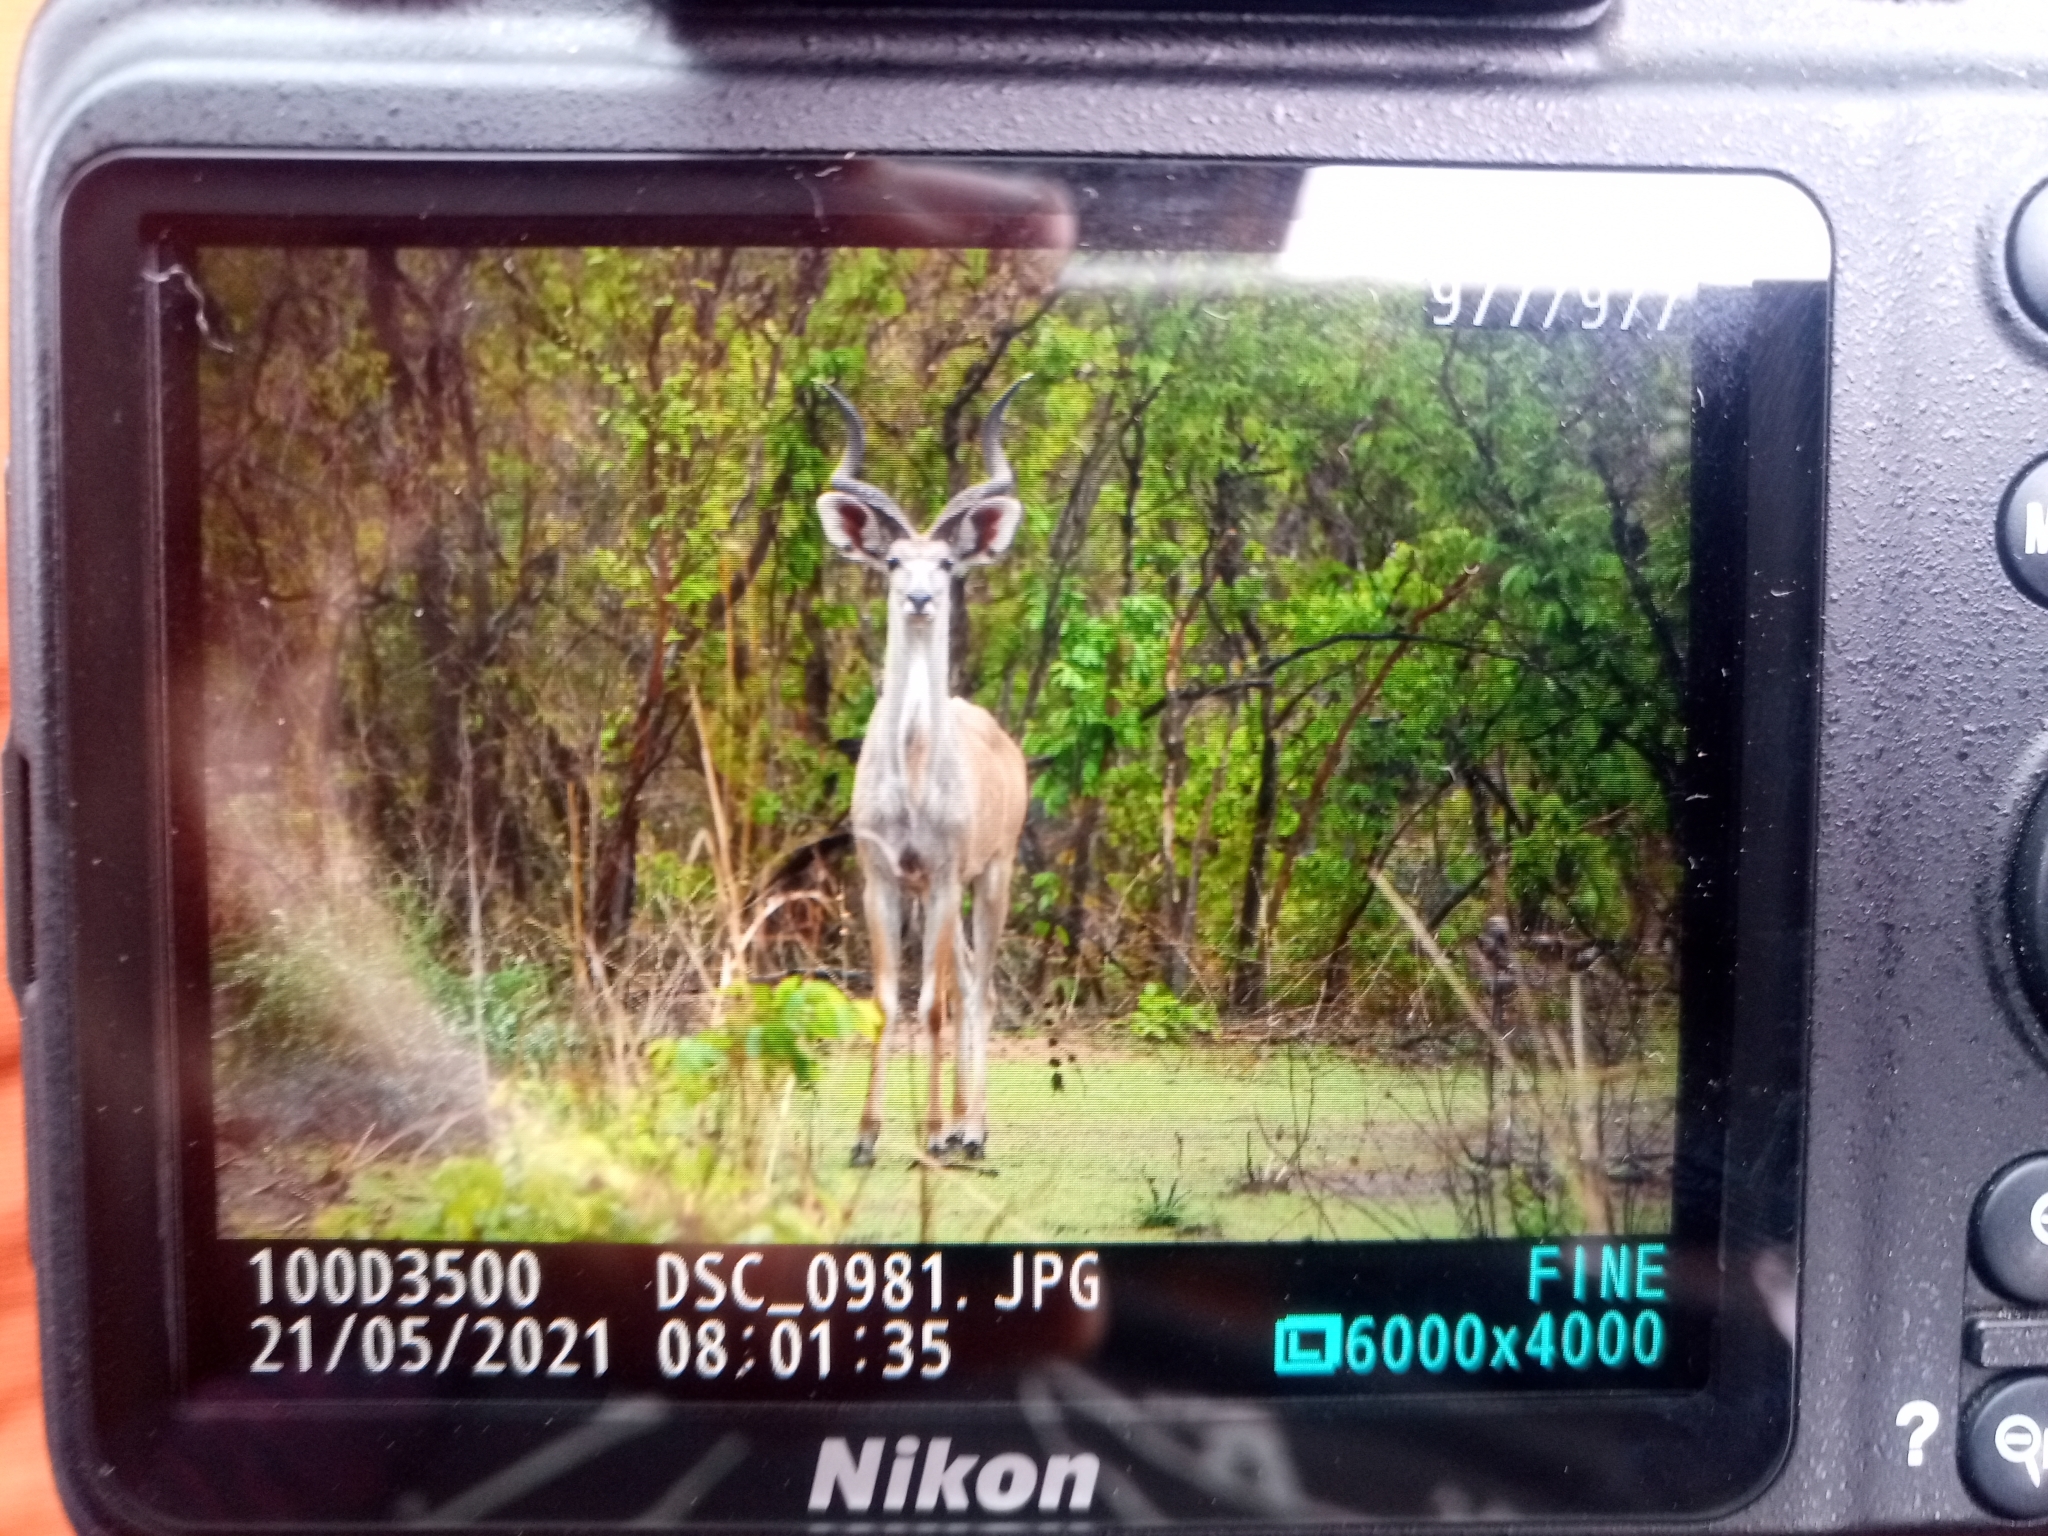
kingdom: Animalia
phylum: Chordata
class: Mammalia
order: Artiodactyla
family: Bovidae
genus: Tragelaphus
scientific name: Tragelaphus strepsiceros
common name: Greater kudu
